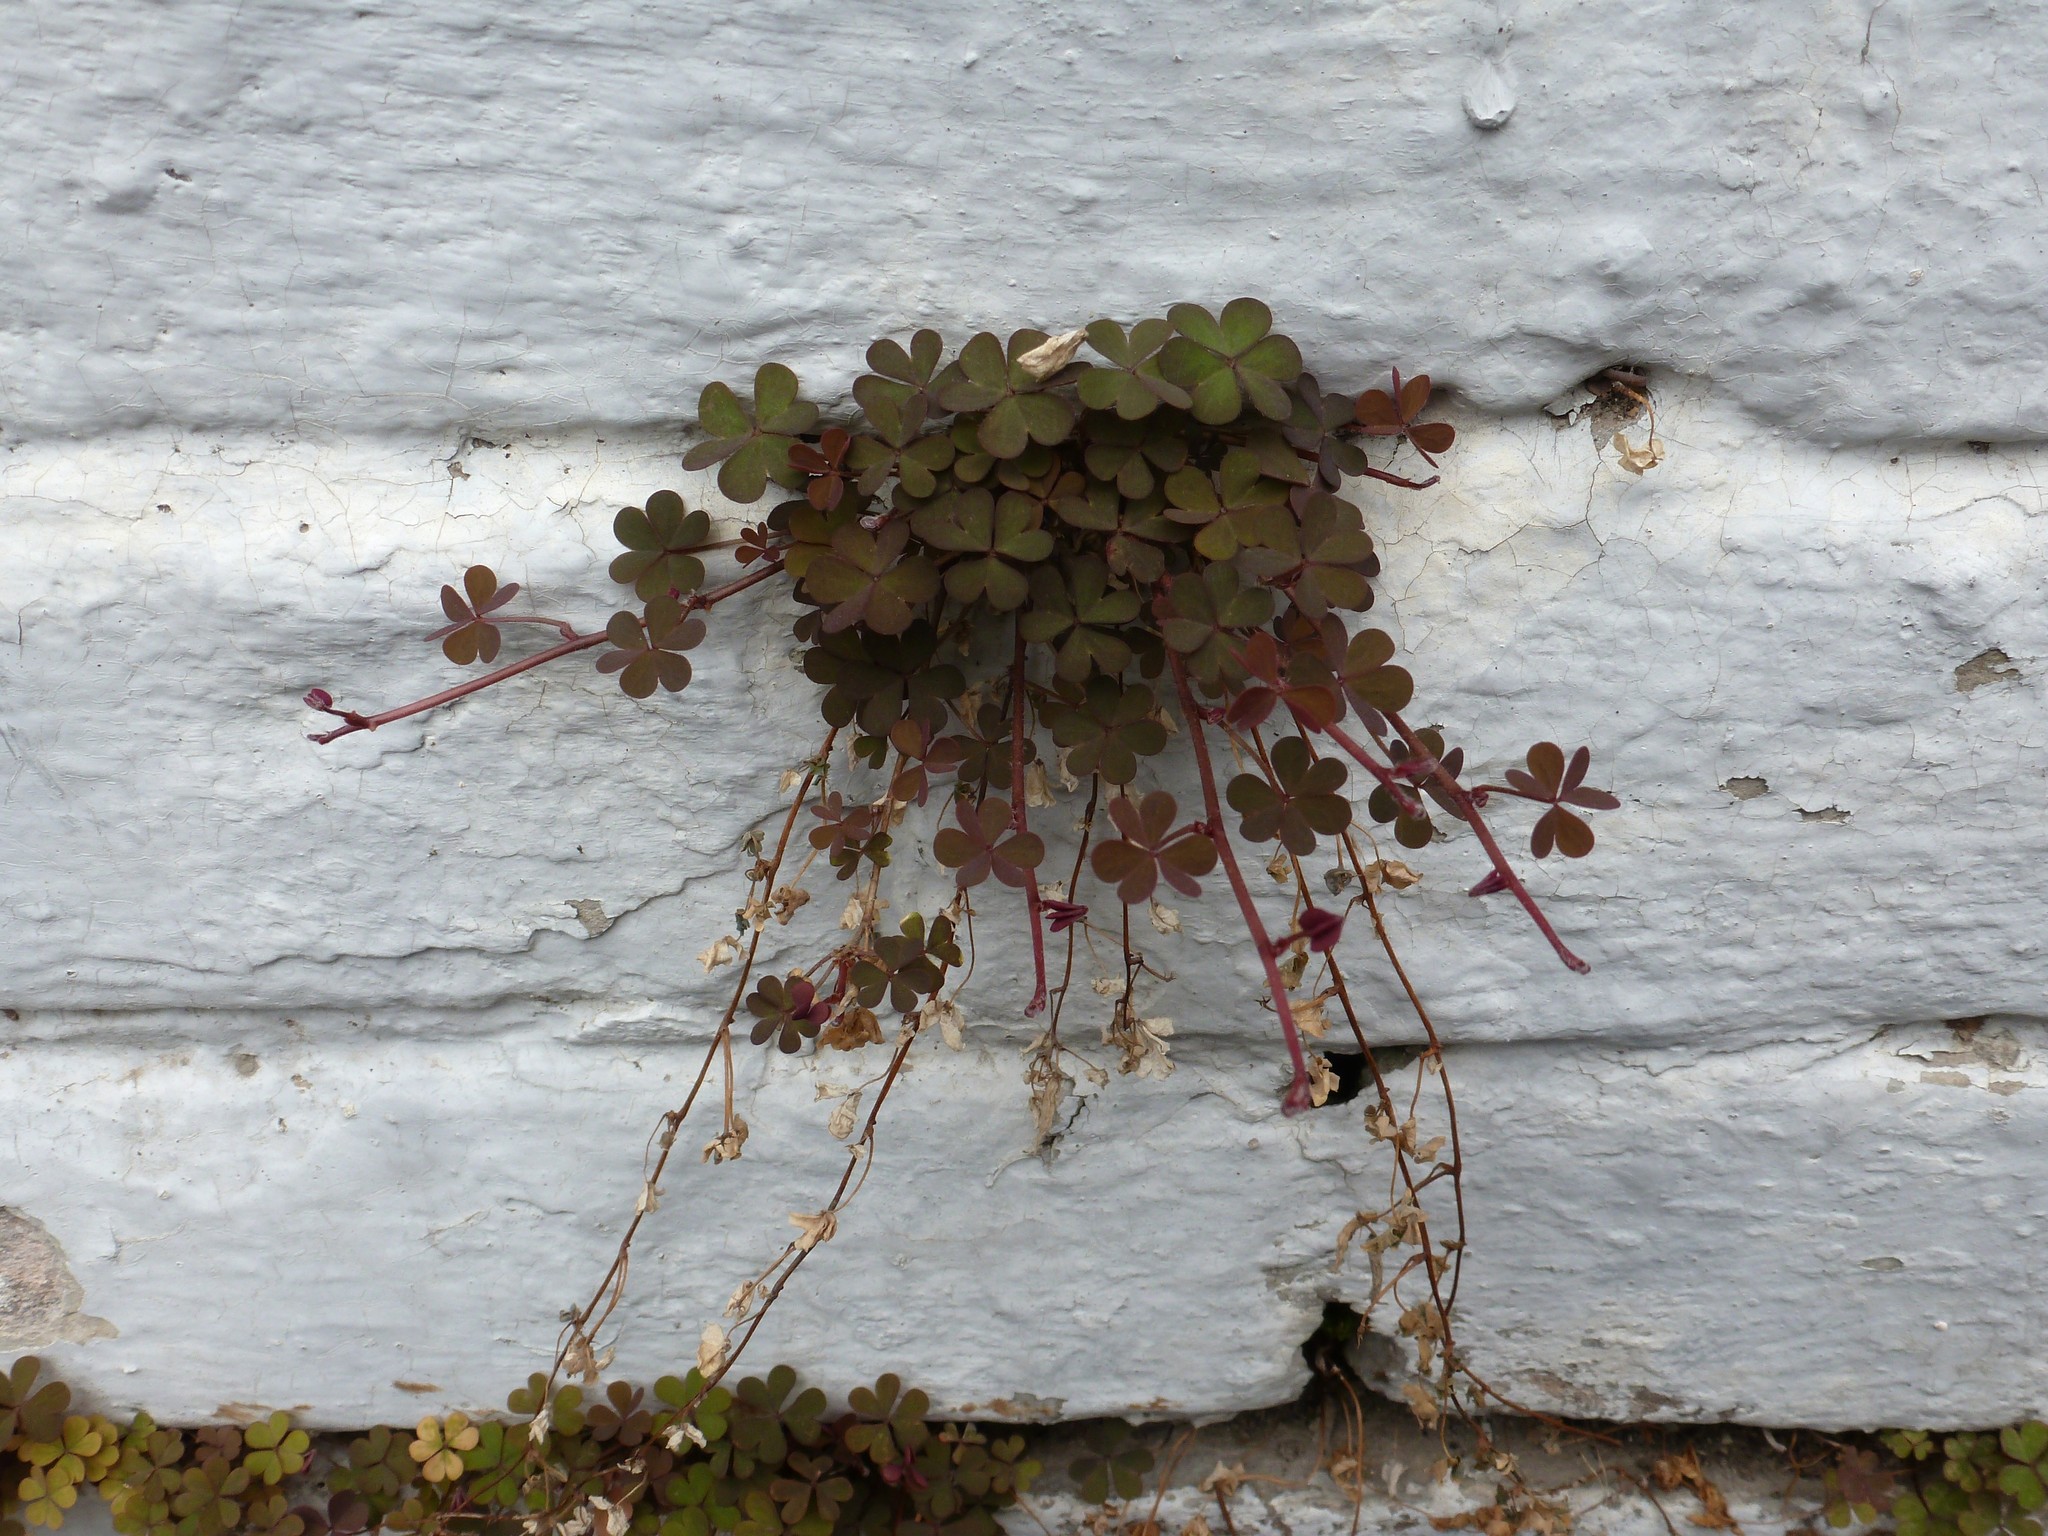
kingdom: Plantae
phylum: Tracheophyta
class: Magnoliopsida
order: Oxalidales
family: Oxalidaceae
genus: Oxalis
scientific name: Oxalis corniculata
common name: Procumbent yellow-sorrel
